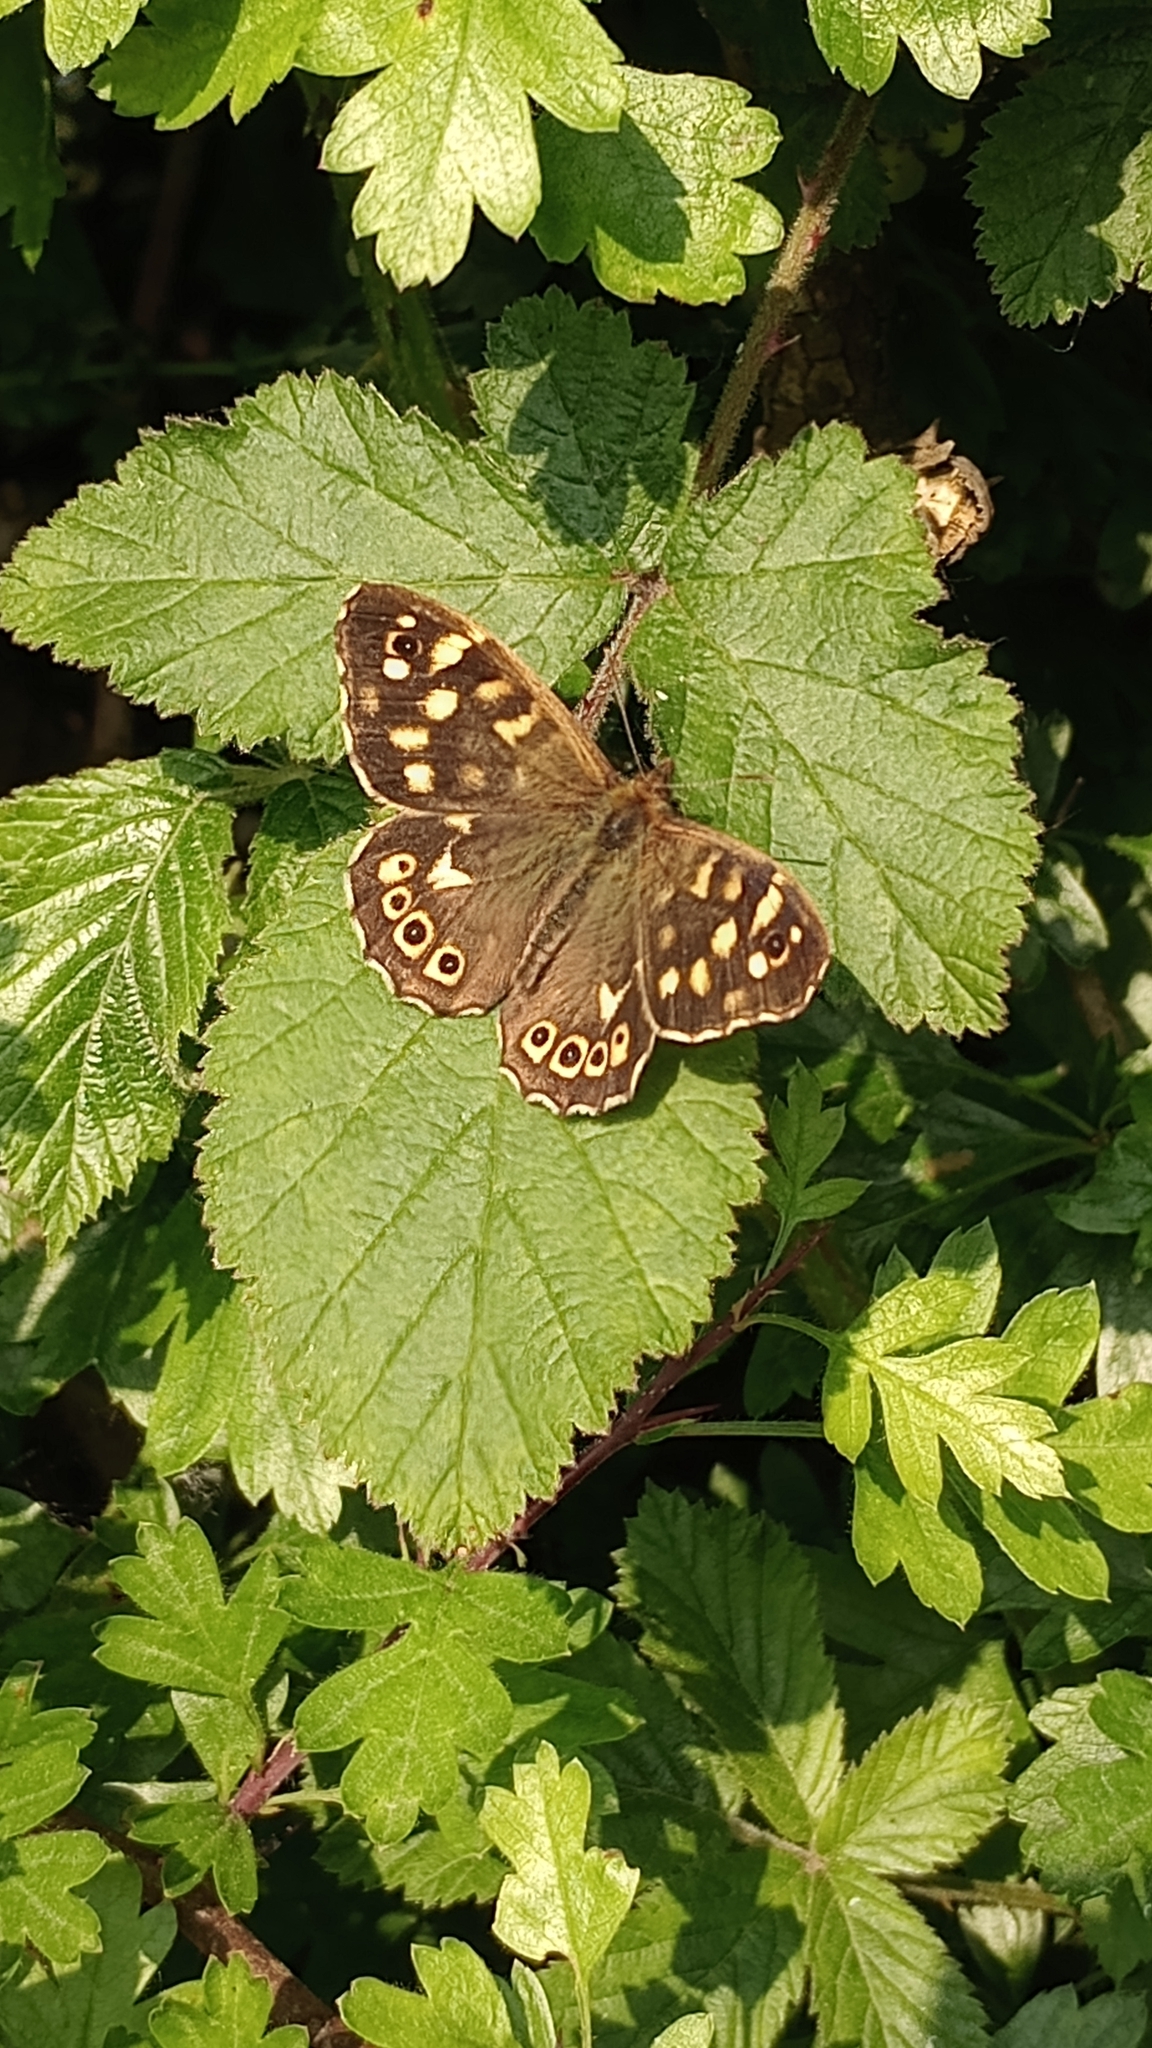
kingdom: Animalia
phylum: Arthropoda
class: Insecta
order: Lepidoptera
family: Nymphalidae
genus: Pararge
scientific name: Pararge aegeria
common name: Speckled wood
